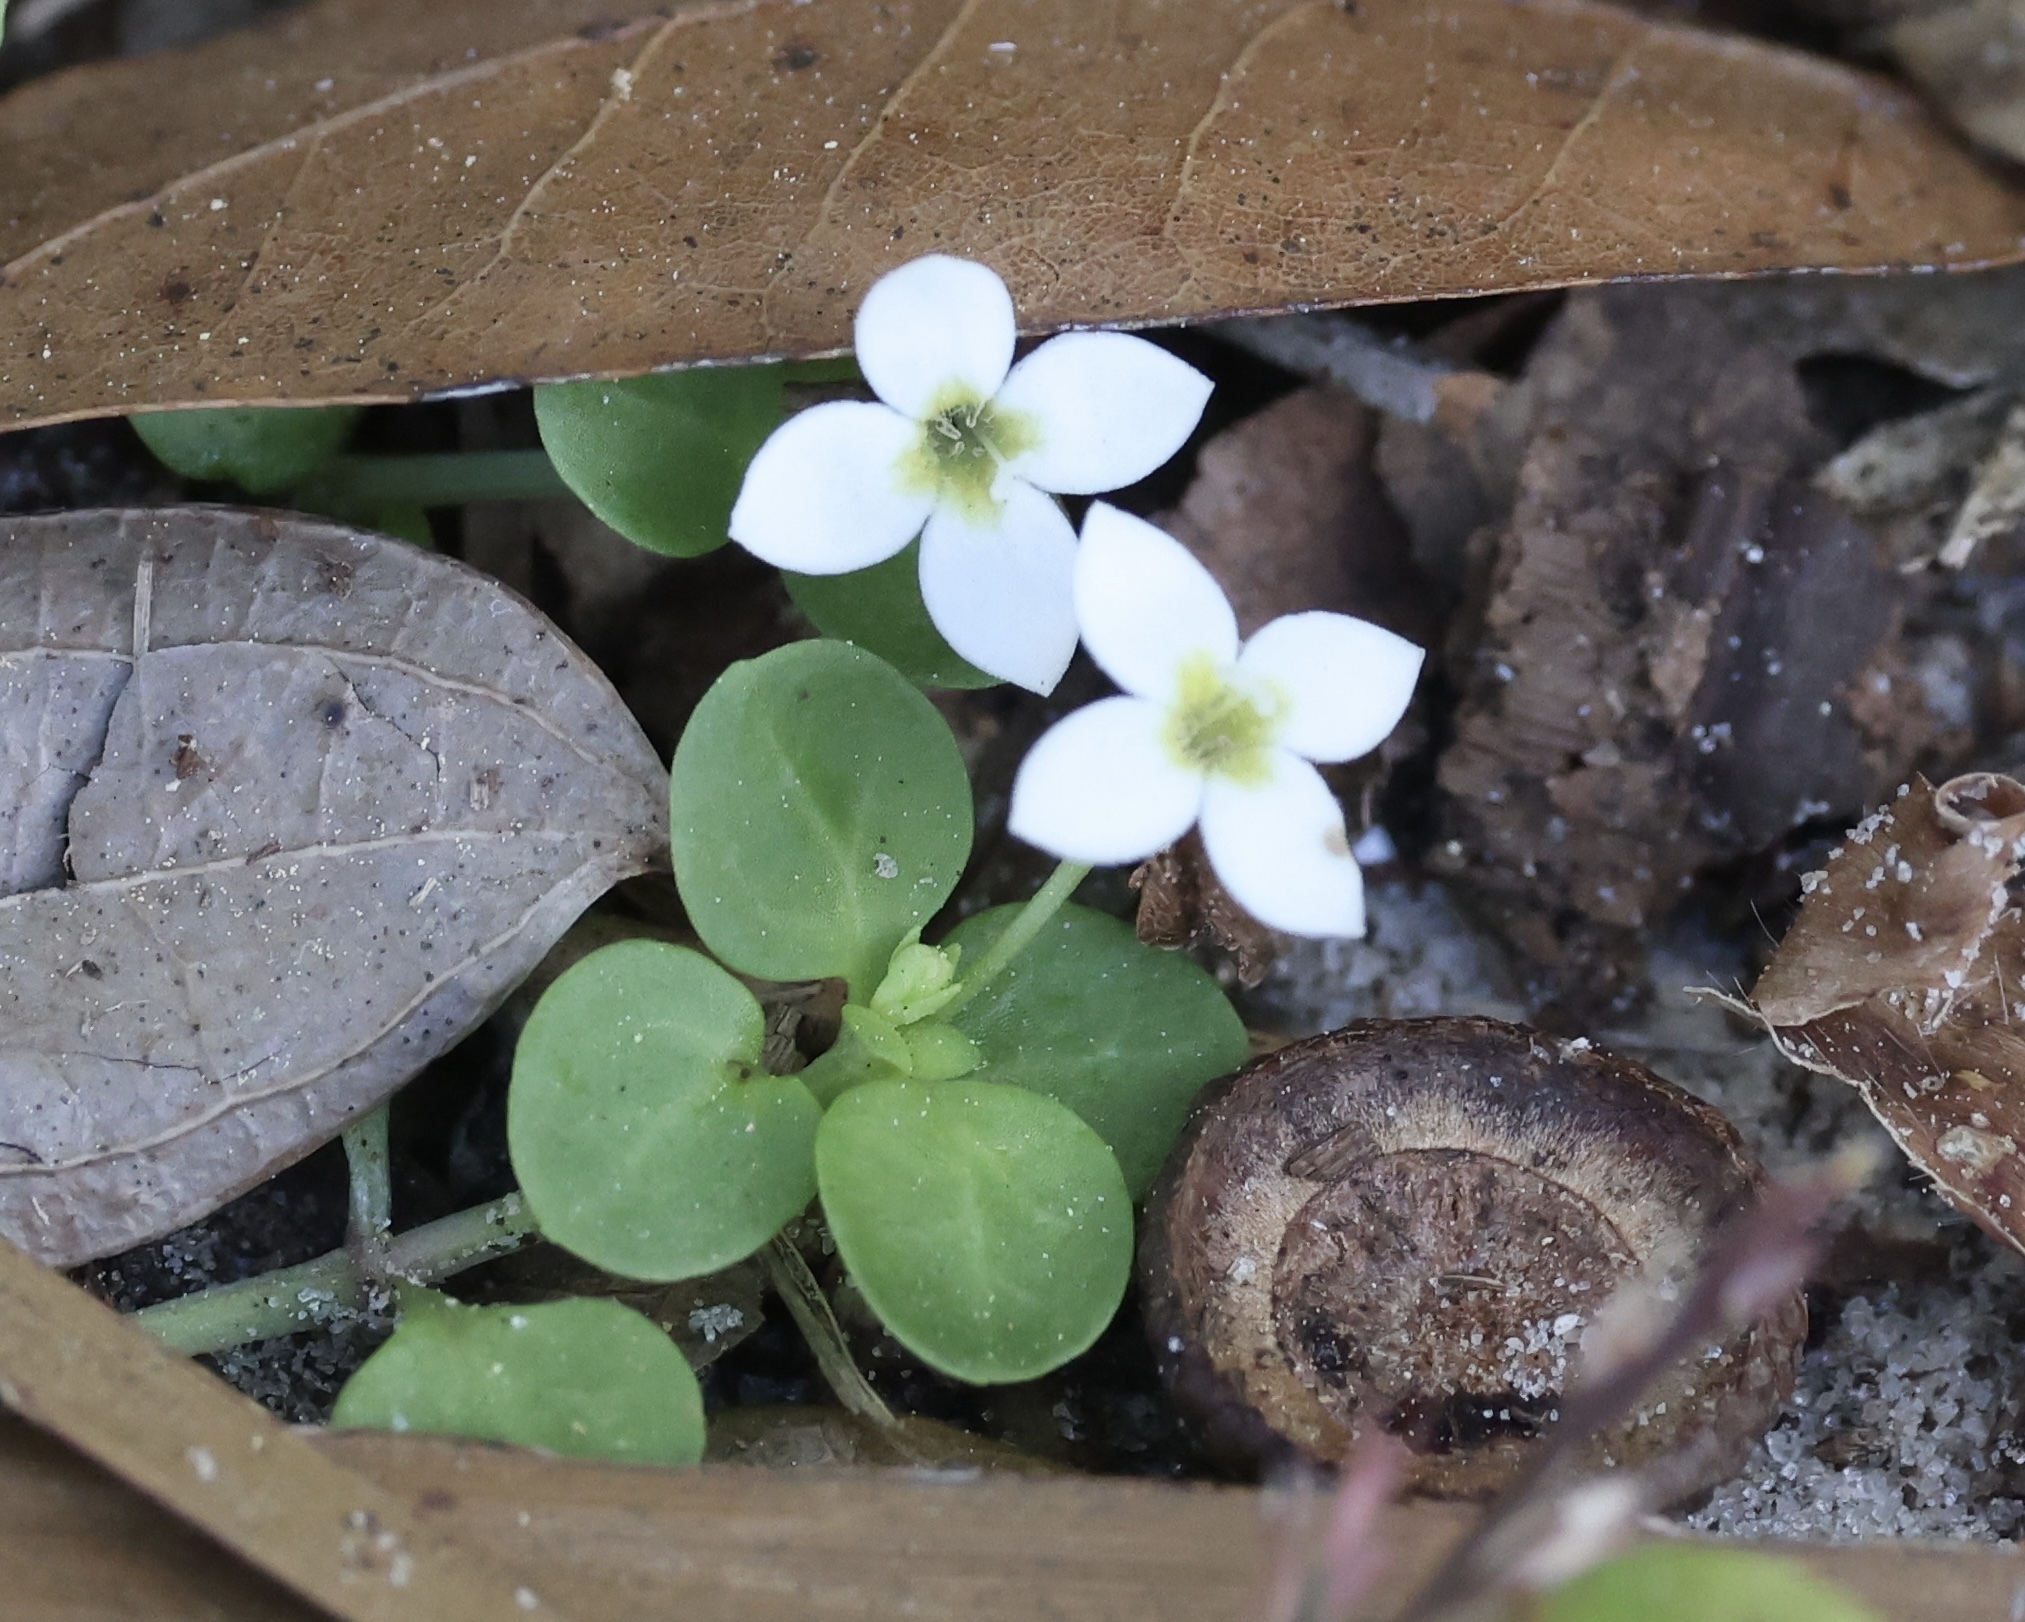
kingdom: Plantae
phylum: Tracheophyta
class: Magnoliopsida
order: Gentianales
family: Rubiaceae
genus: Houstonia
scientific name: Houstonia procumbens
